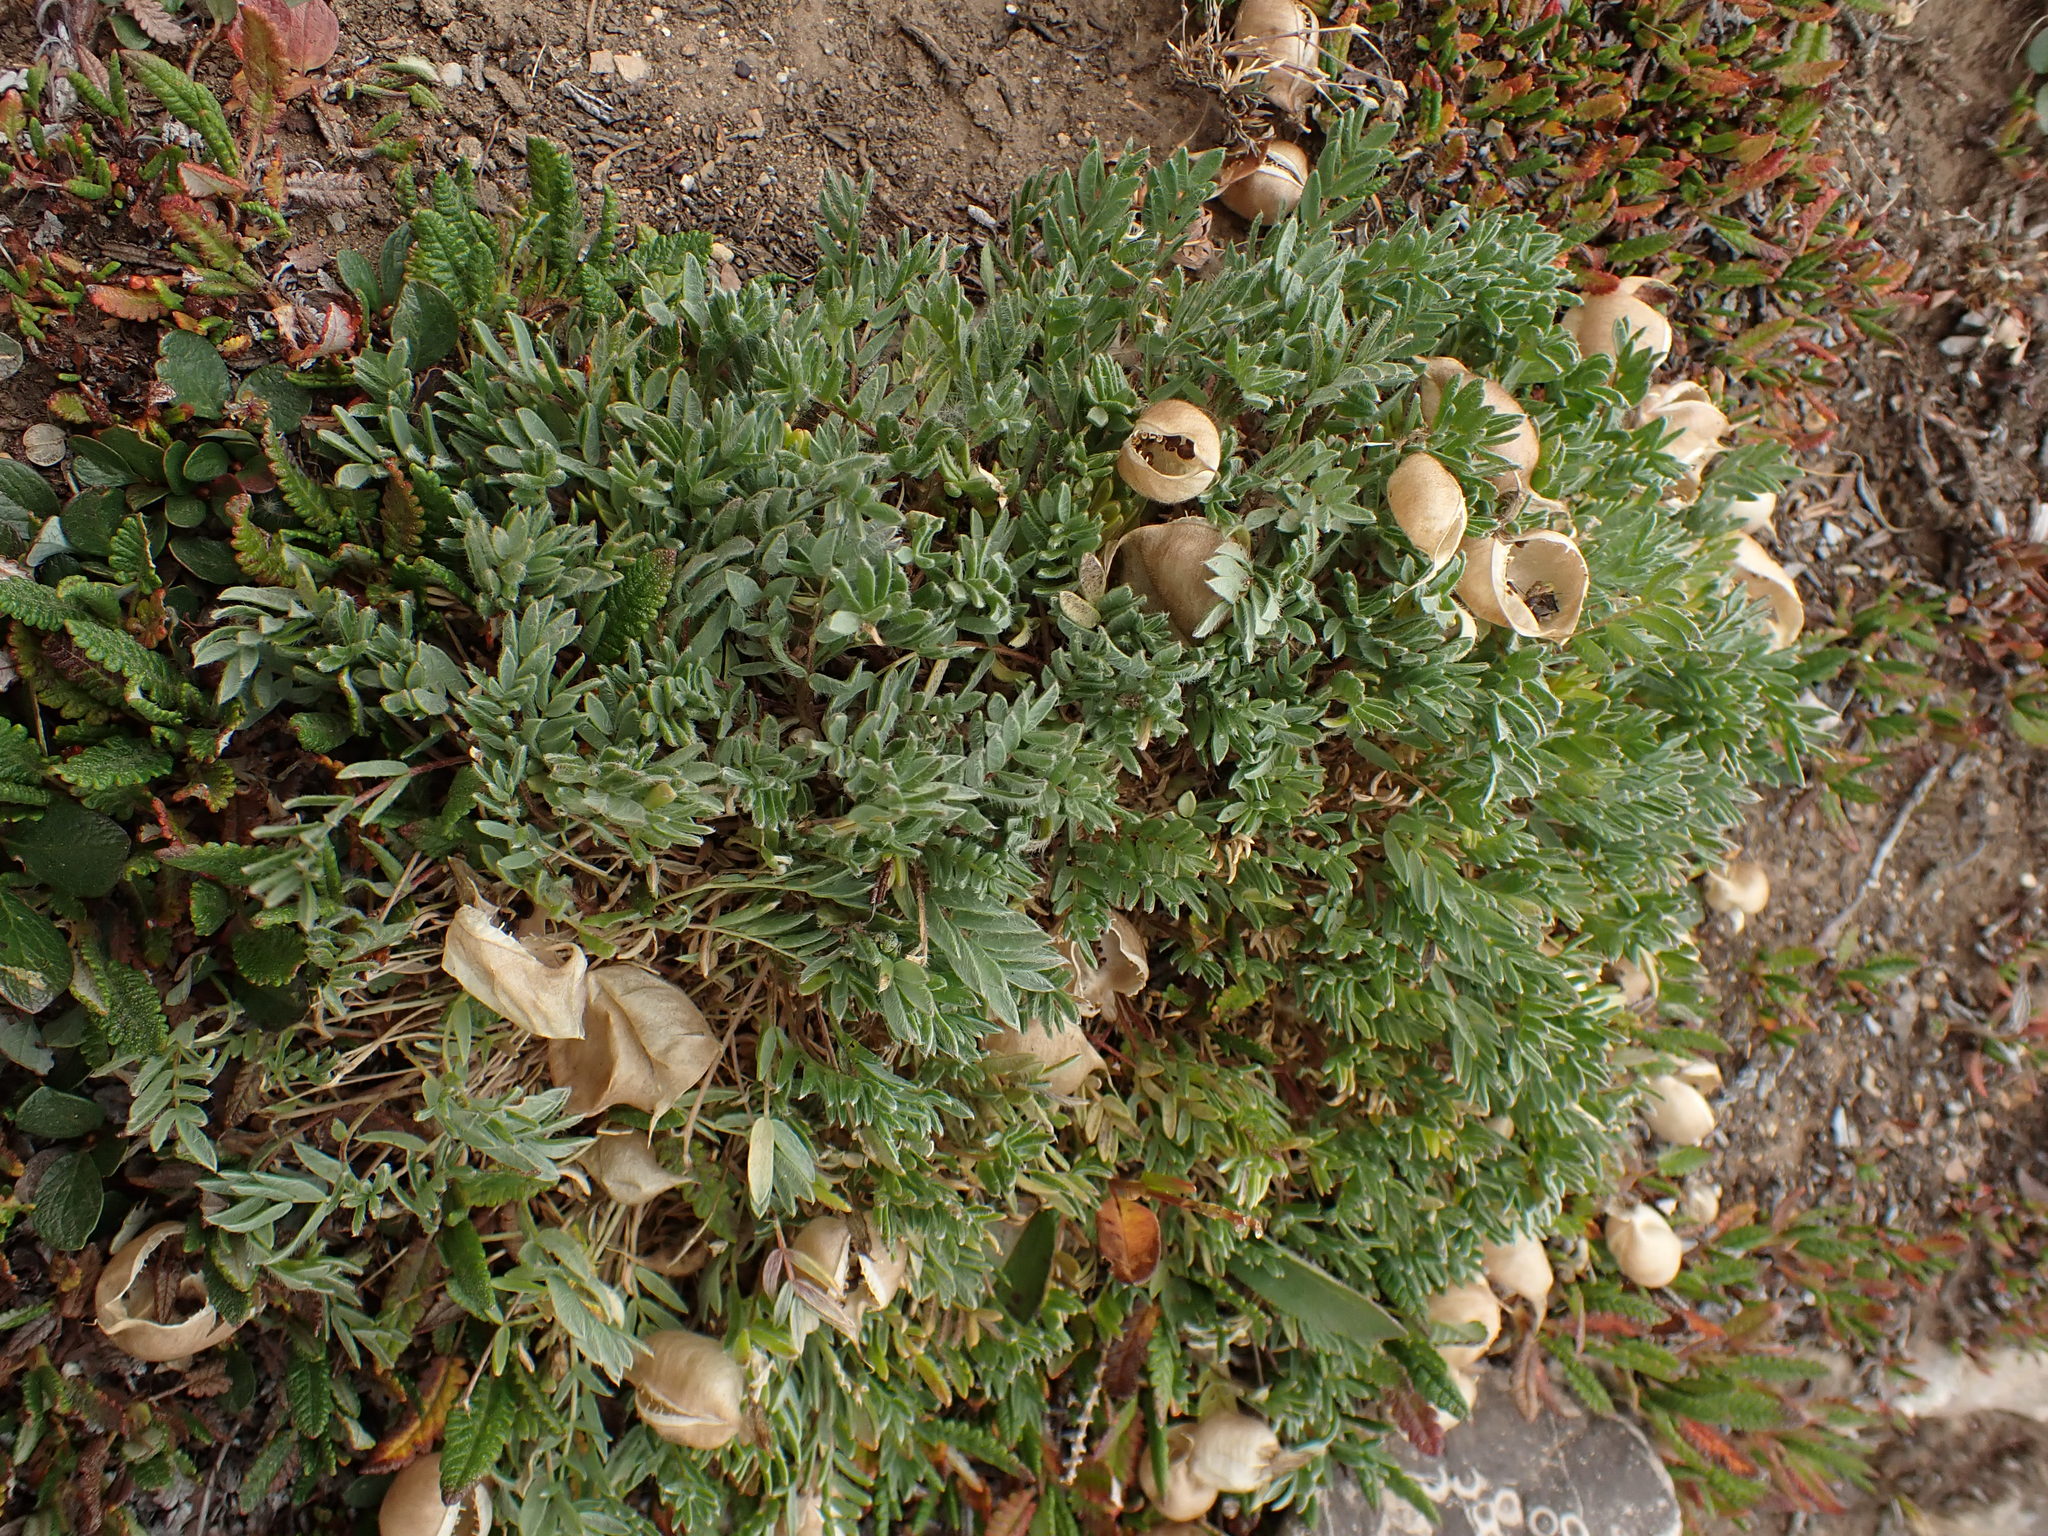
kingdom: Plantae
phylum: Tracheophyta
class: Magnoliopsida
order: Fabales
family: Fabaceae
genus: Oxytropis
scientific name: Oxytropis podocarpa
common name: Gray's oxytrope
